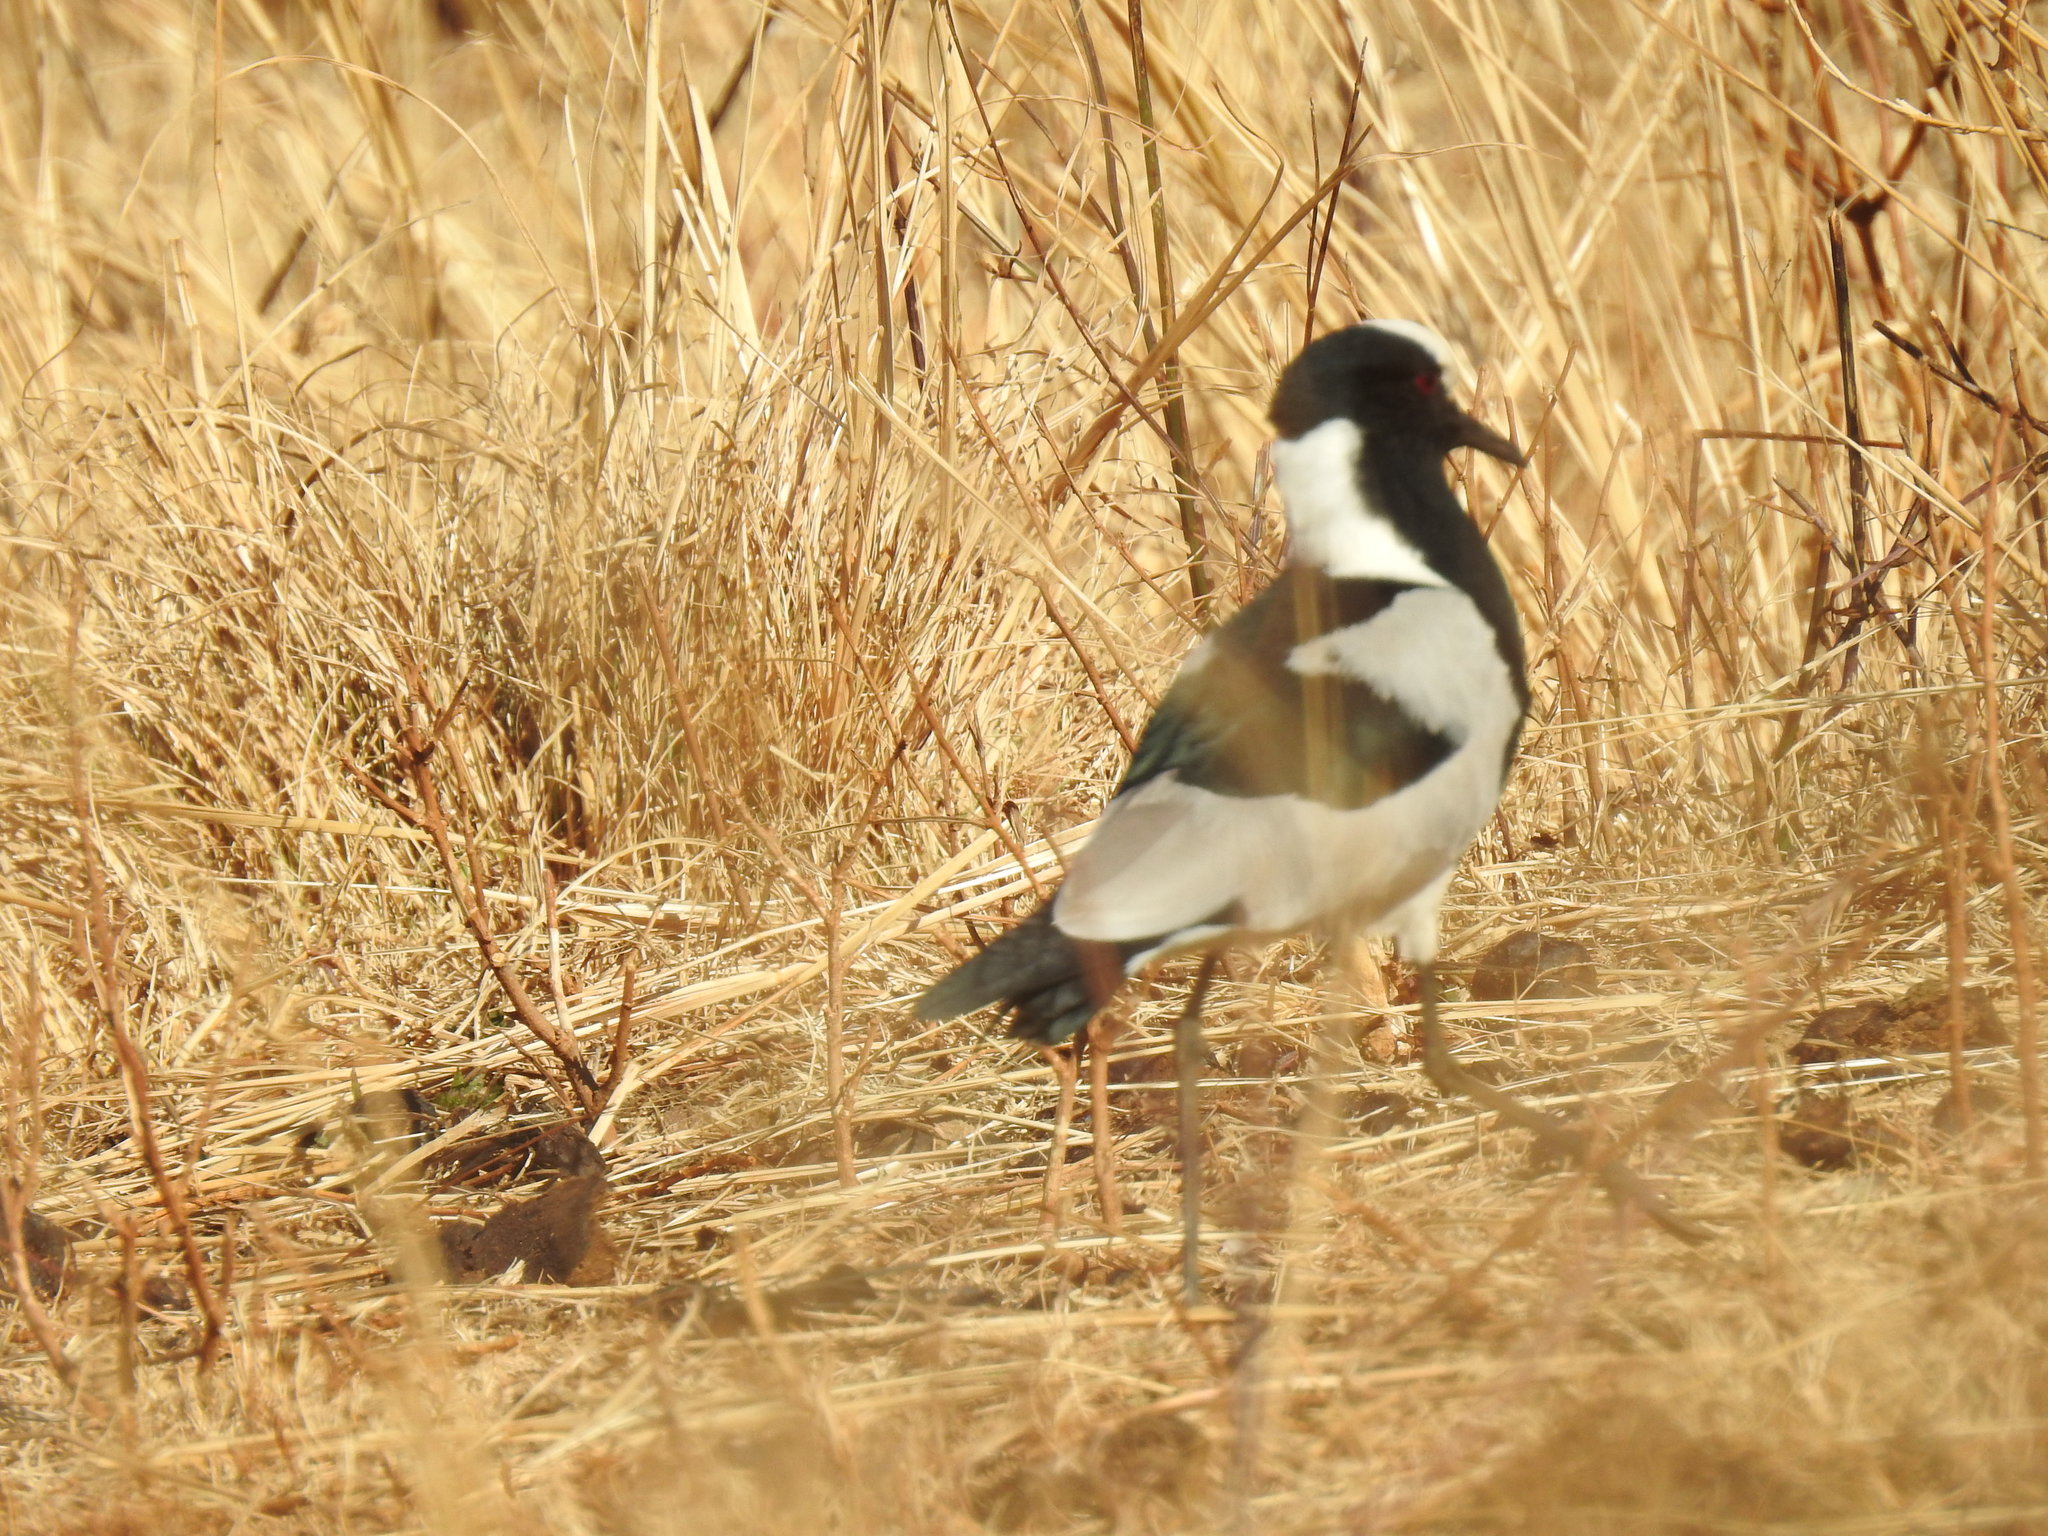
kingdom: Animalia
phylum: Chordata
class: Aves
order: Charadriiformes
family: Charadriidae
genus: Vanellus
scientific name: Vanellus armatus
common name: Blacksmith lapwing
